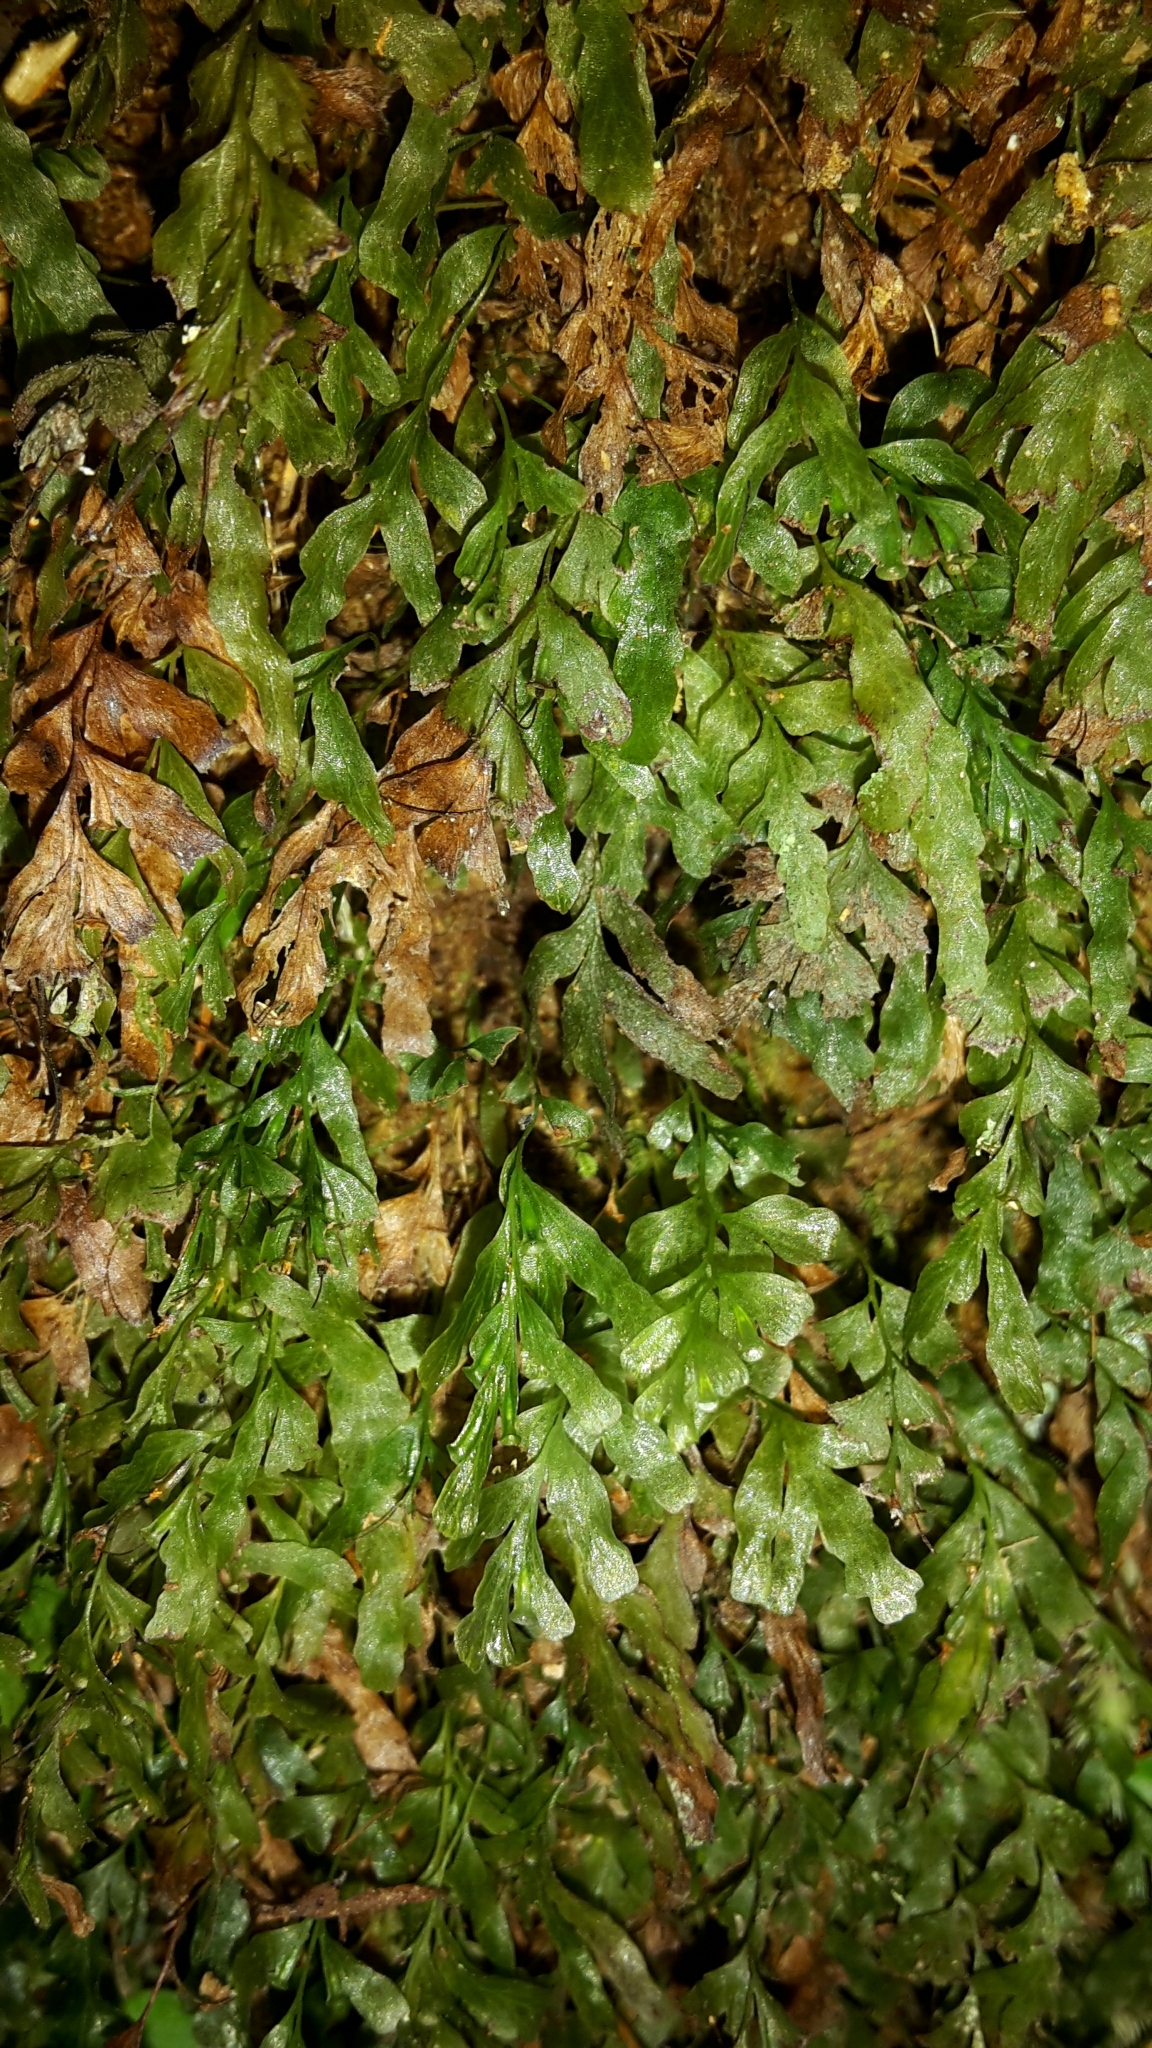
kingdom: Plantae
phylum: Tracheophyta
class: Polypodiopsida
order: Hymenophyllales
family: Hymenophyllaceae
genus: Polyphlebium
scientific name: Polyphlebium venosum
